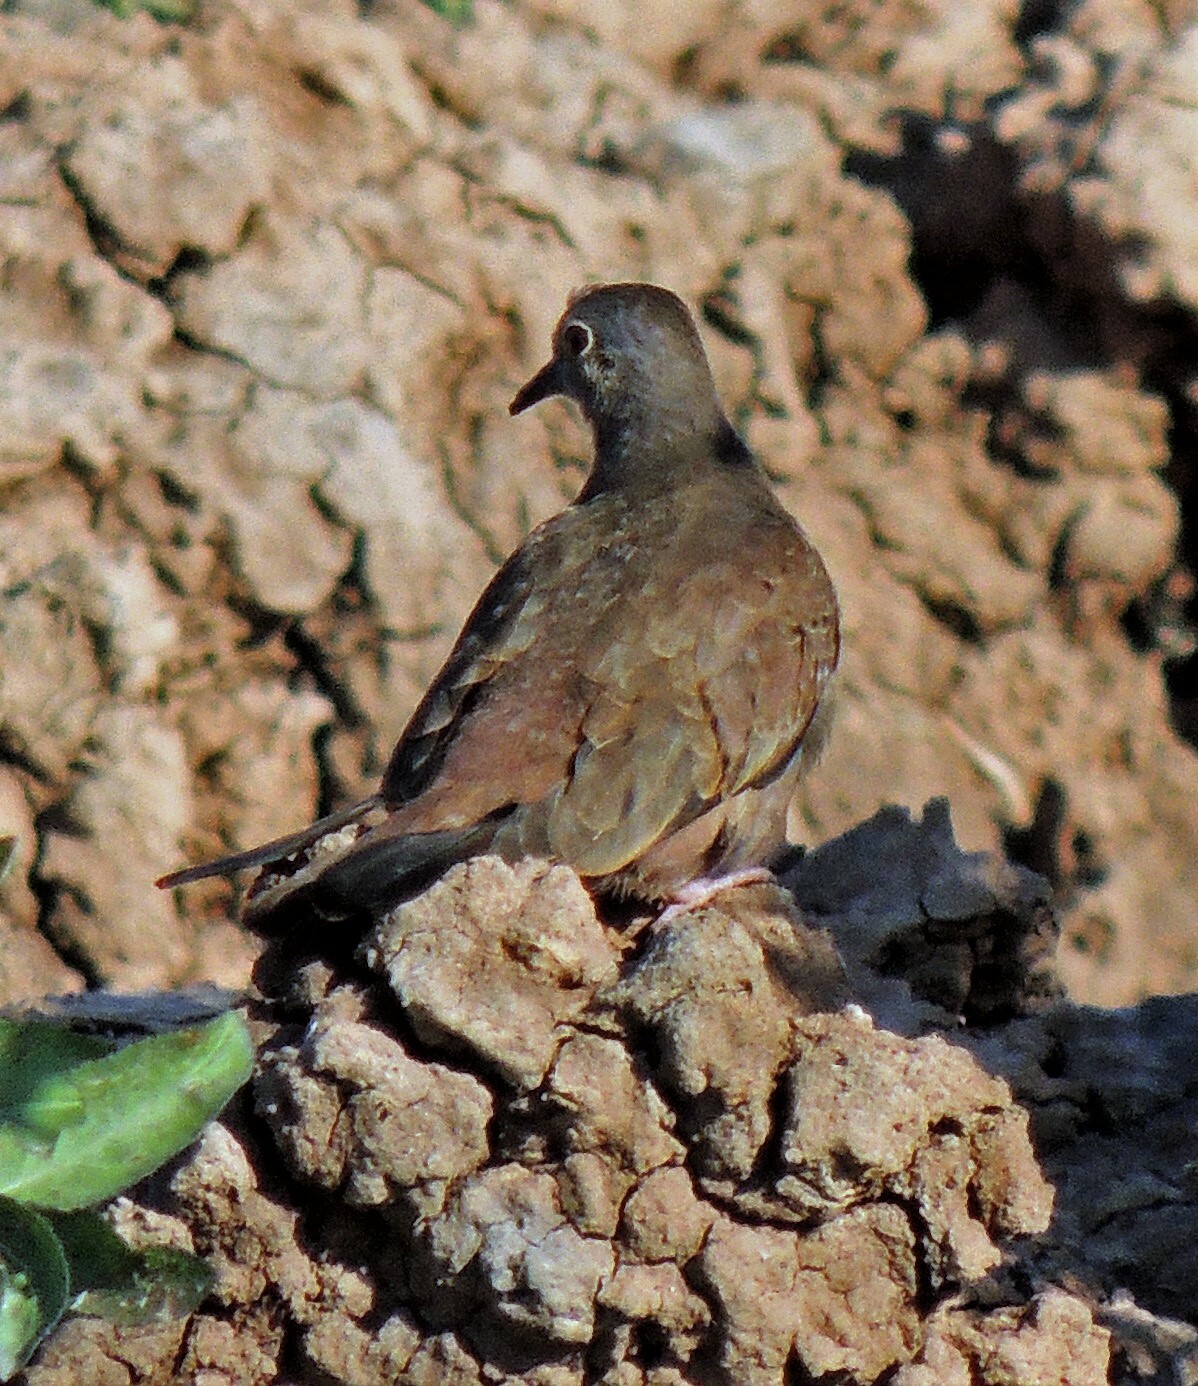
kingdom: Animalia
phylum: Chordata
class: Aves
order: Columbiformes
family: Columbidae
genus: Columbina
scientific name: Columbina talpacoti
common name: Ruddy ground dove
